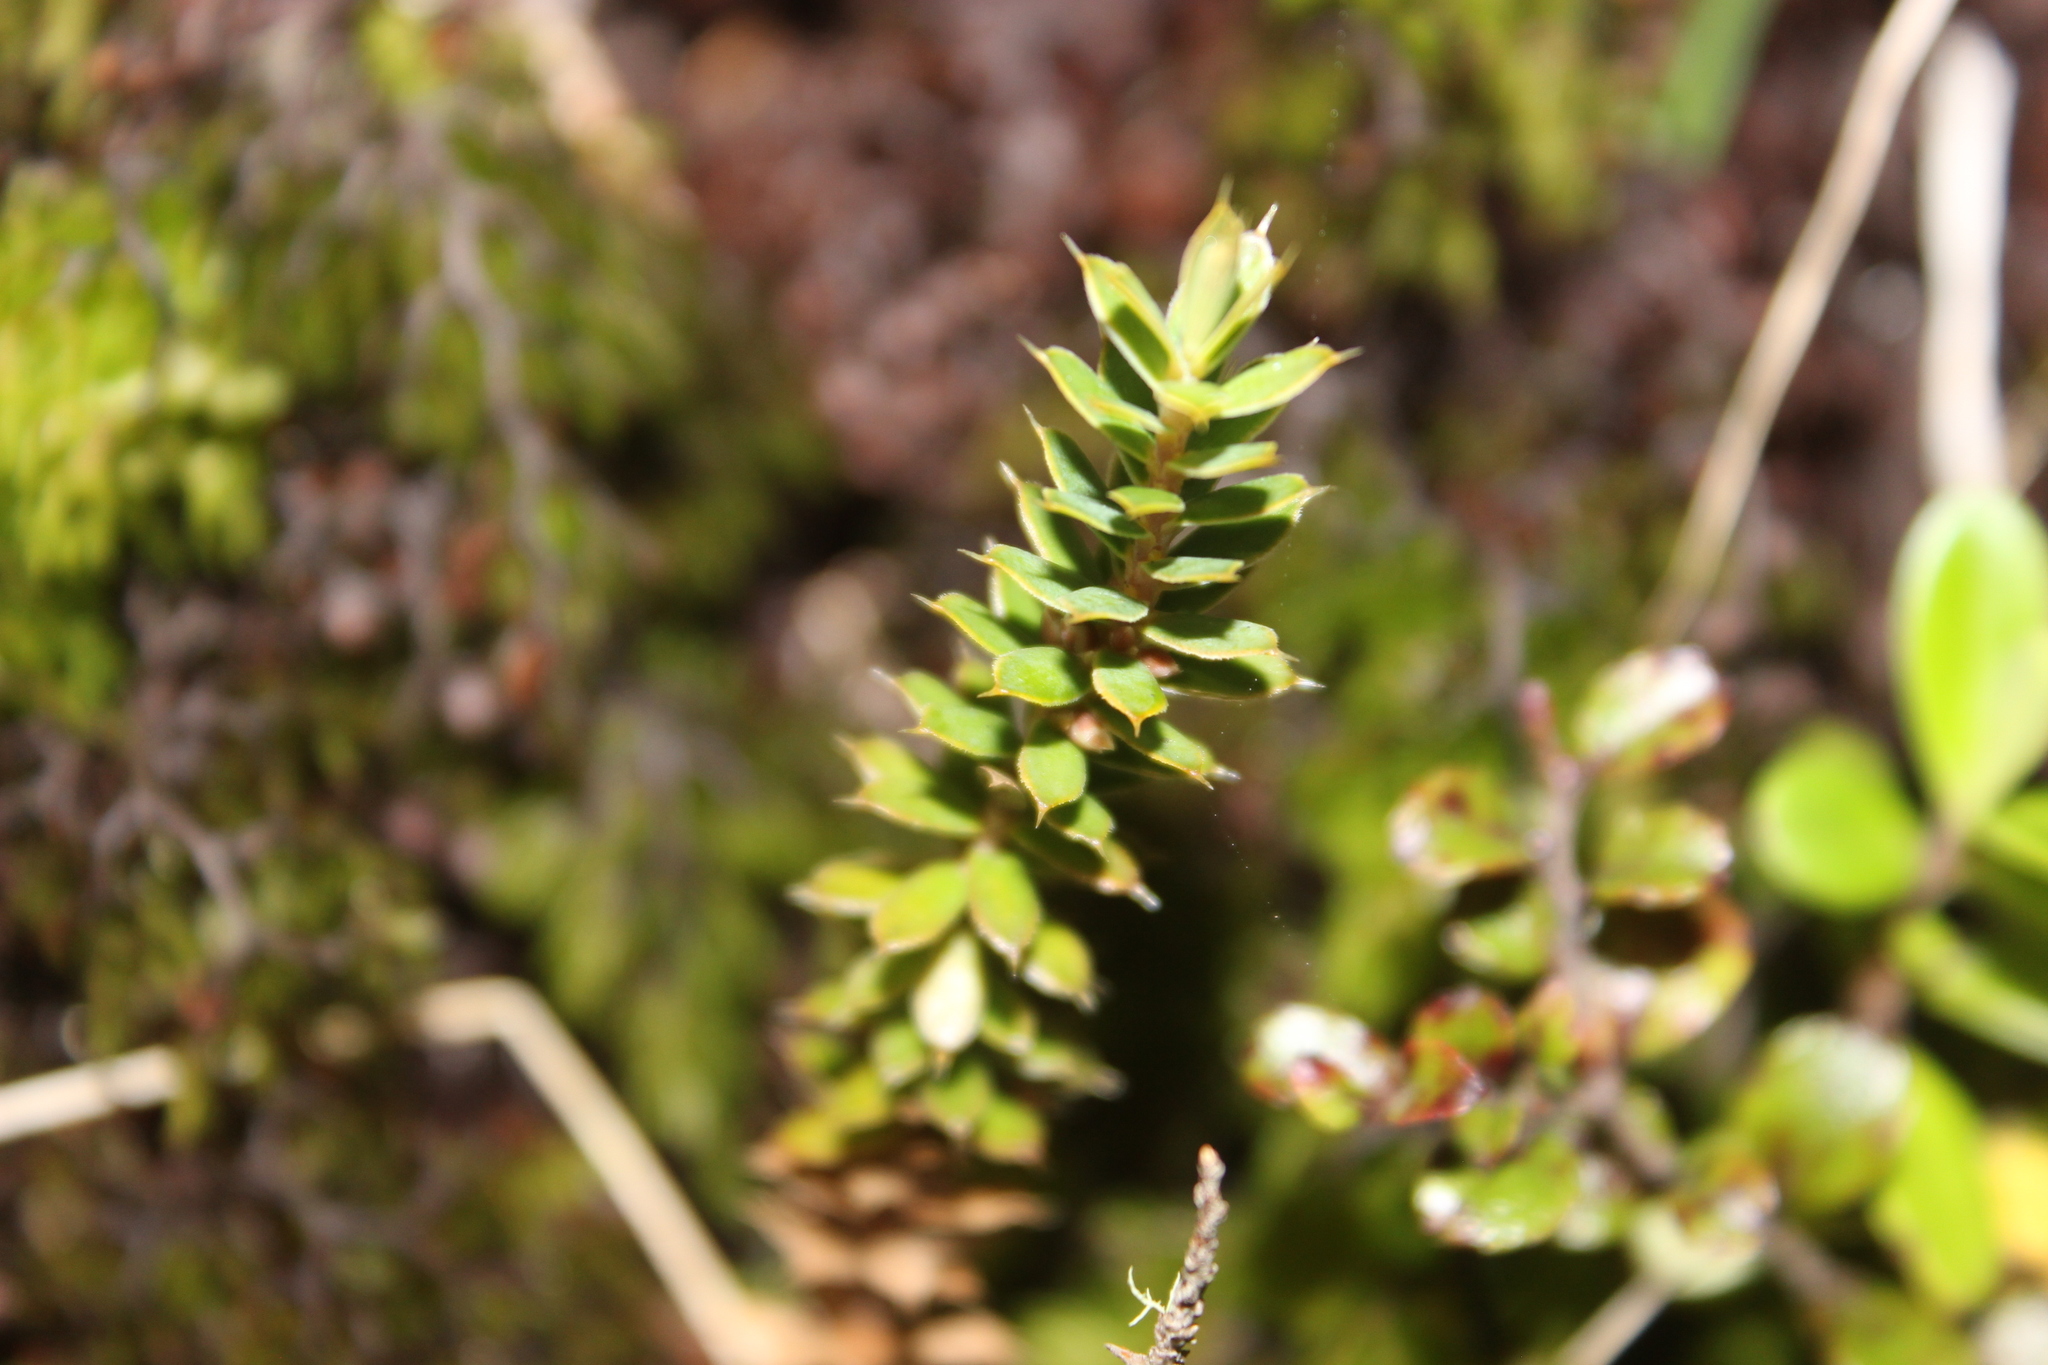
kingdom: Plantae
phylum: Tracheophyta
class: Magnoliopsida
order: Ericales
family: Ericaceae
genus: Styphelia
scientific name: Styphelia nesophila
